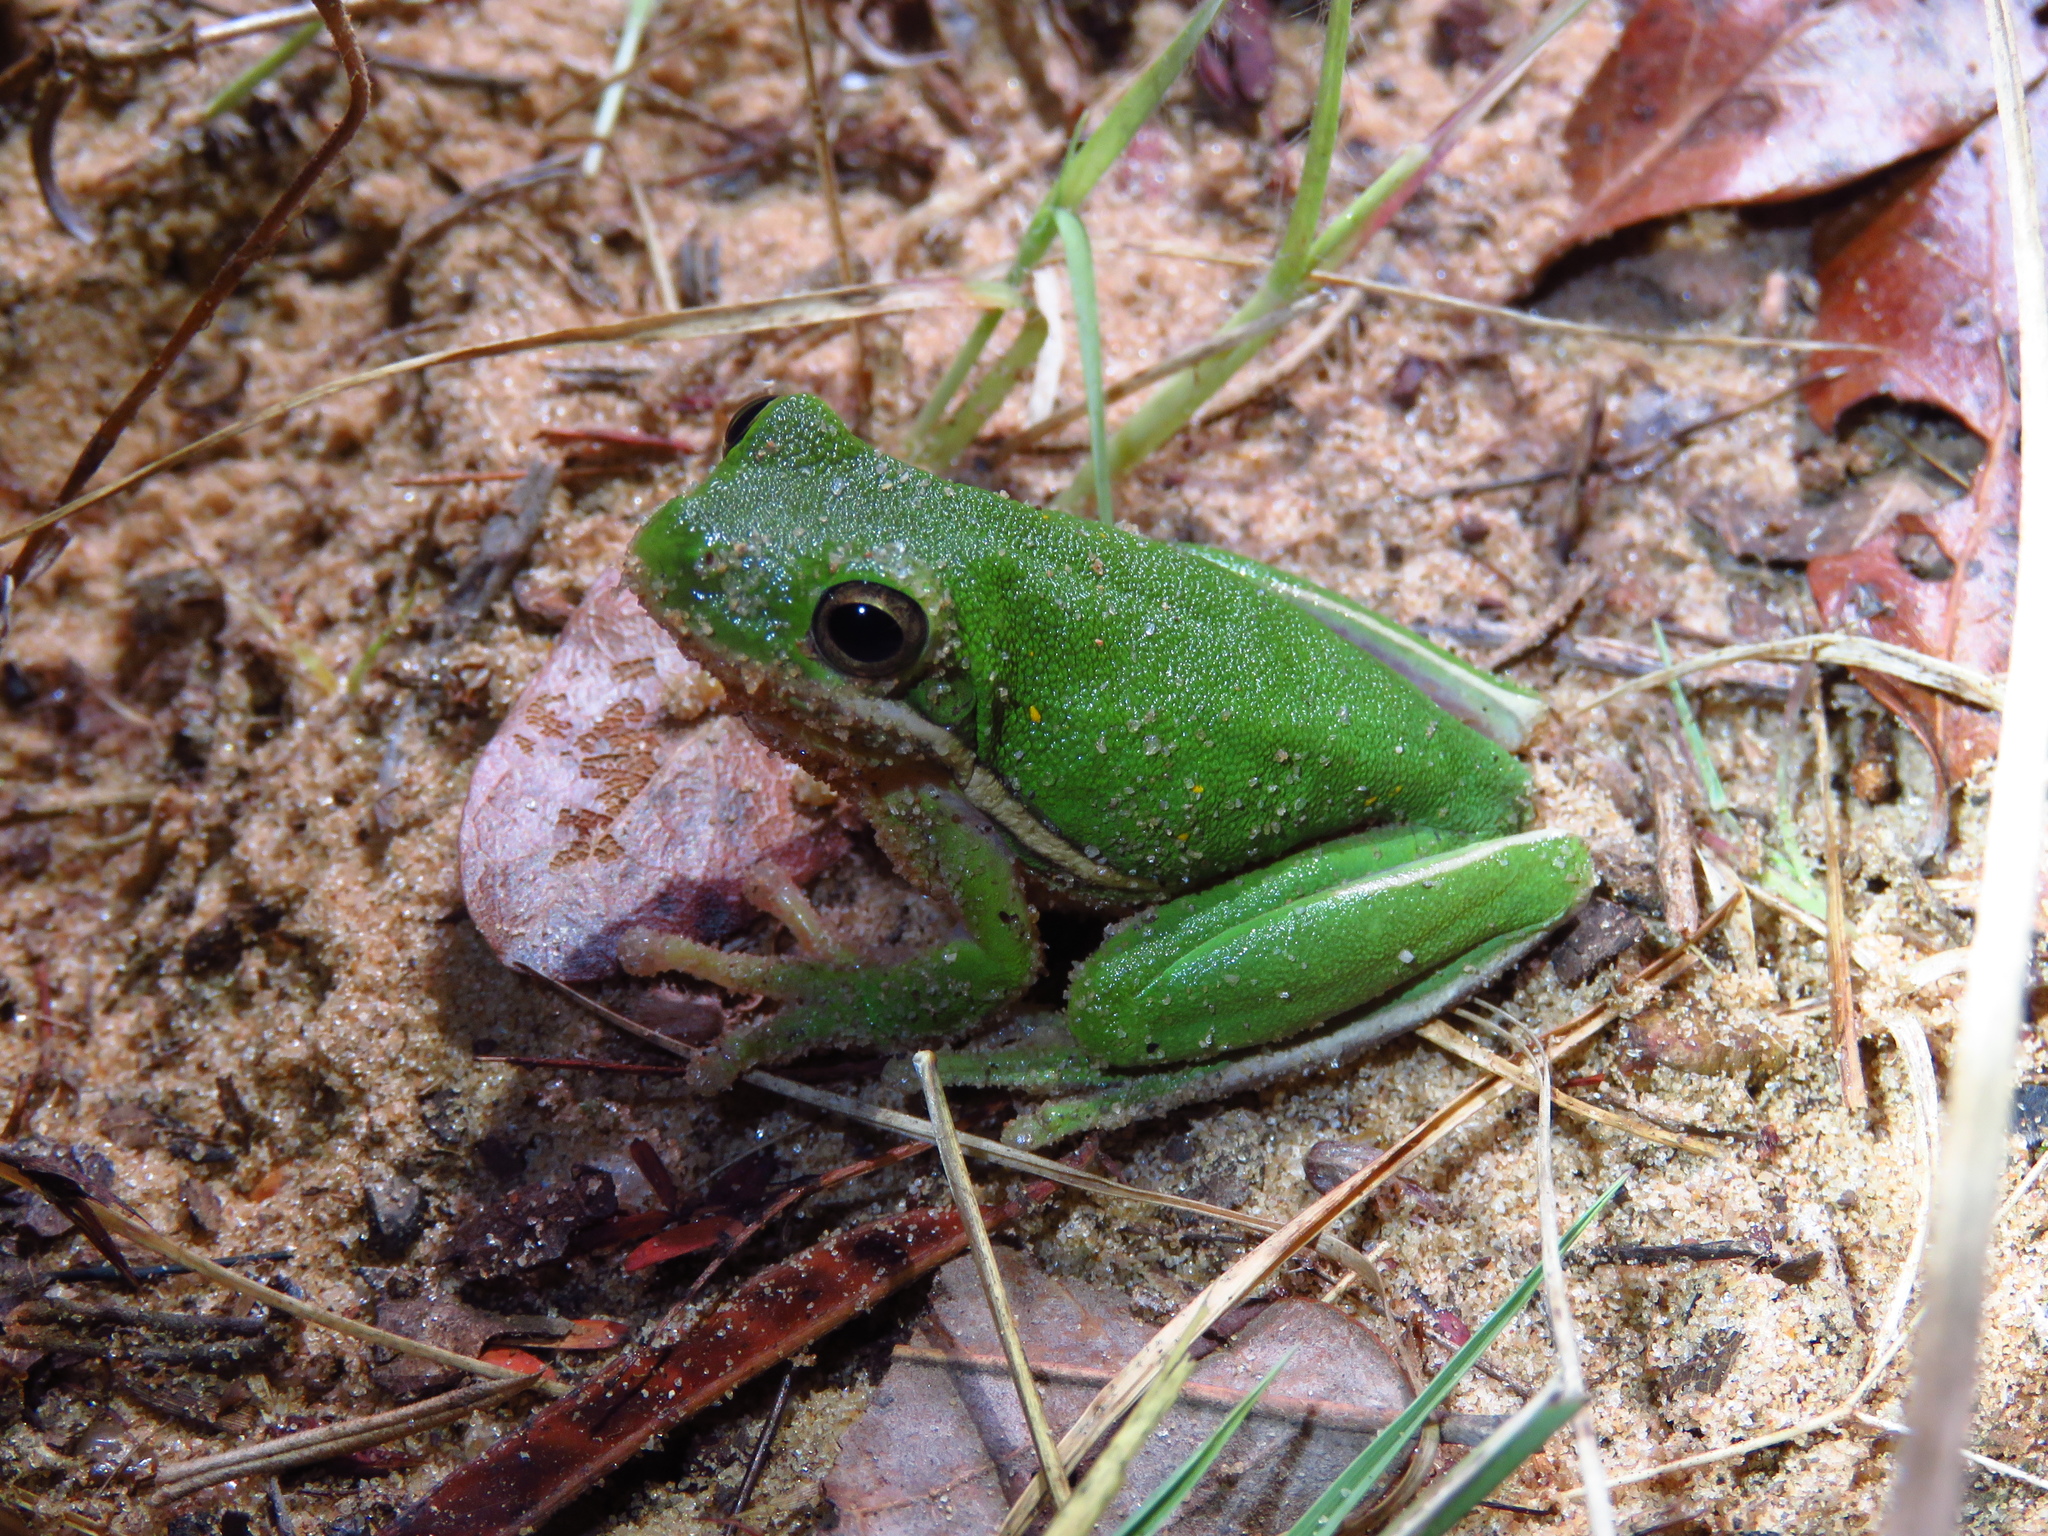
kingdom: Animalia
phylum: Chordata
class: Amphibia
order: Anura
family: Hylidae
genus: Dryophytes
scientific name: Dryophytes cinereus
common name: Green treefrog
